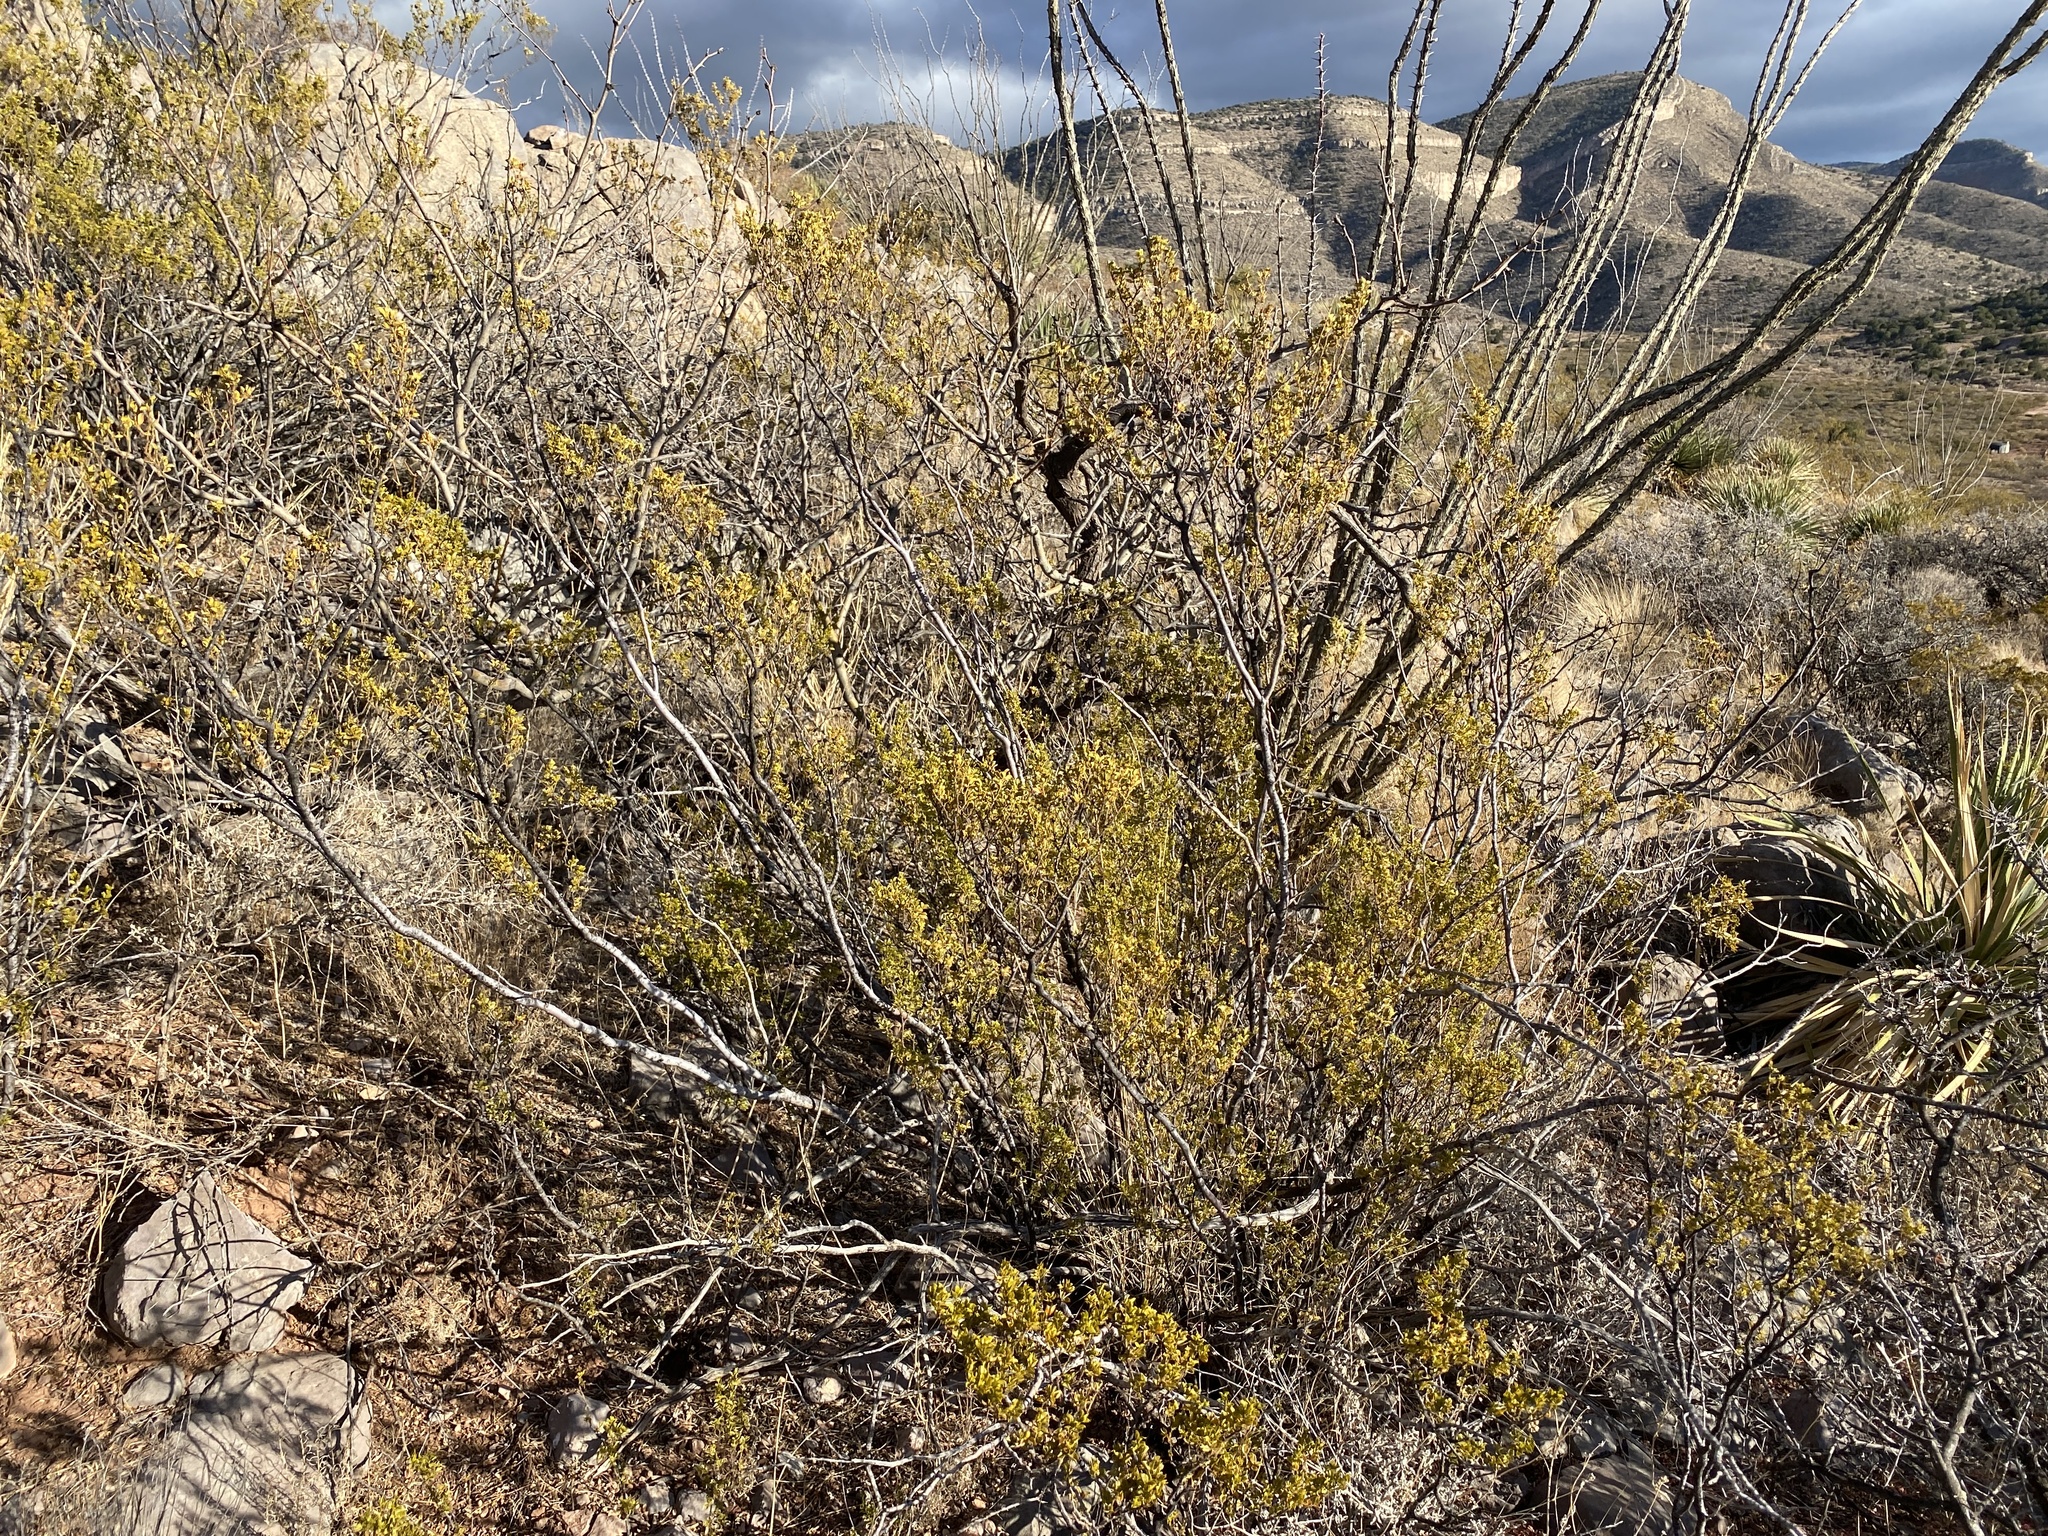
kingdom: Plantae
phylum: Tracheophyta
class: Magnoliopsida
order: Zygophyllales
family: Zygophyllaceae
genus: Larrea
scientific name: Larrea tridentata
